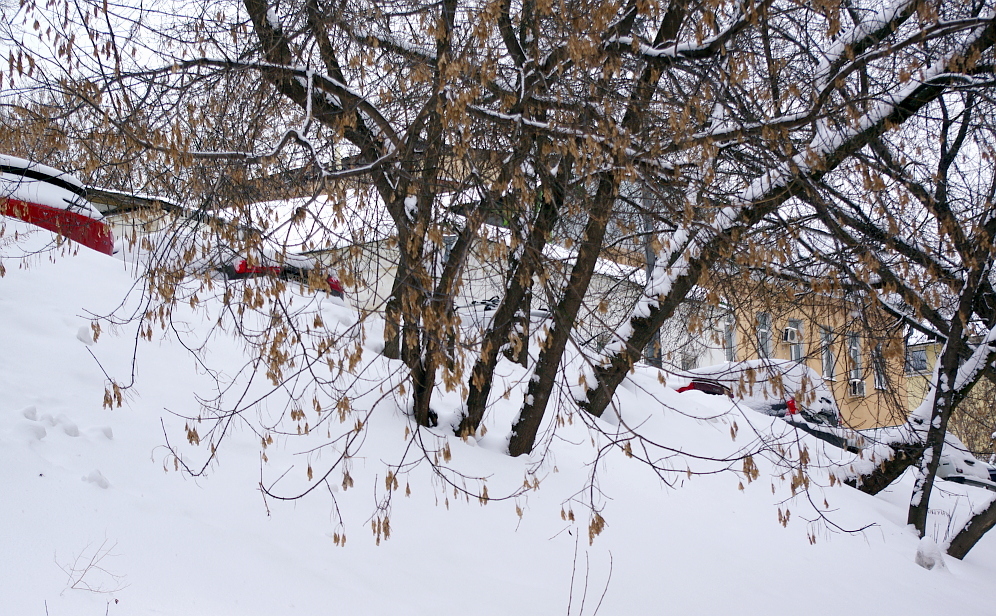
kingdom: Plantae
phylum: Tracheophyta
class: Magnoliopsida
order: Sapindales
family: Sapindaceae
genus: Acer
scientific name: Acer negundo
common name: Ashleaf maple
